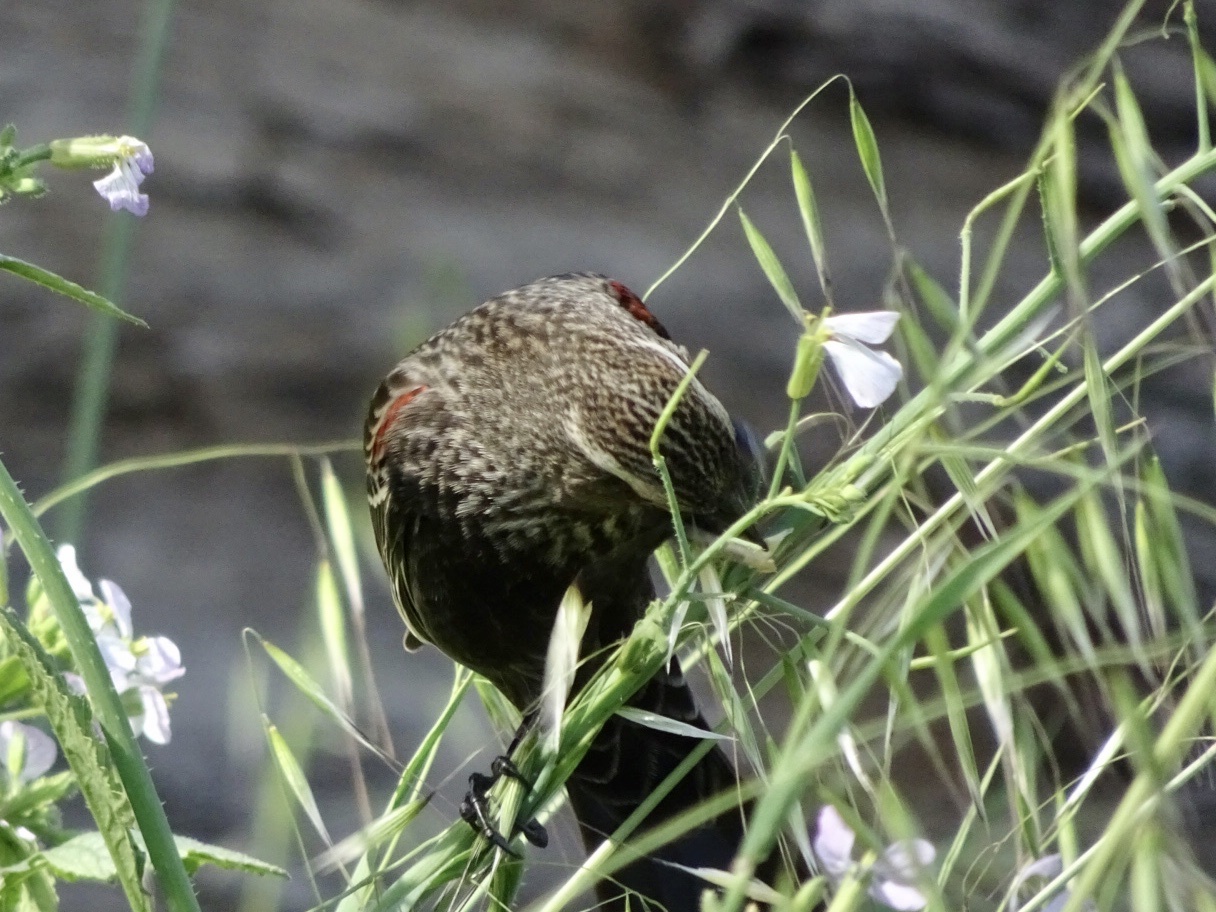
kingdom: Animalia
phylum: Chordata
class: Aves
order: Passeriformes
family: Icteridae
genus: Agelaius
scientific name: Agelaius phoeniceus
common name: Red-winged blackbird
